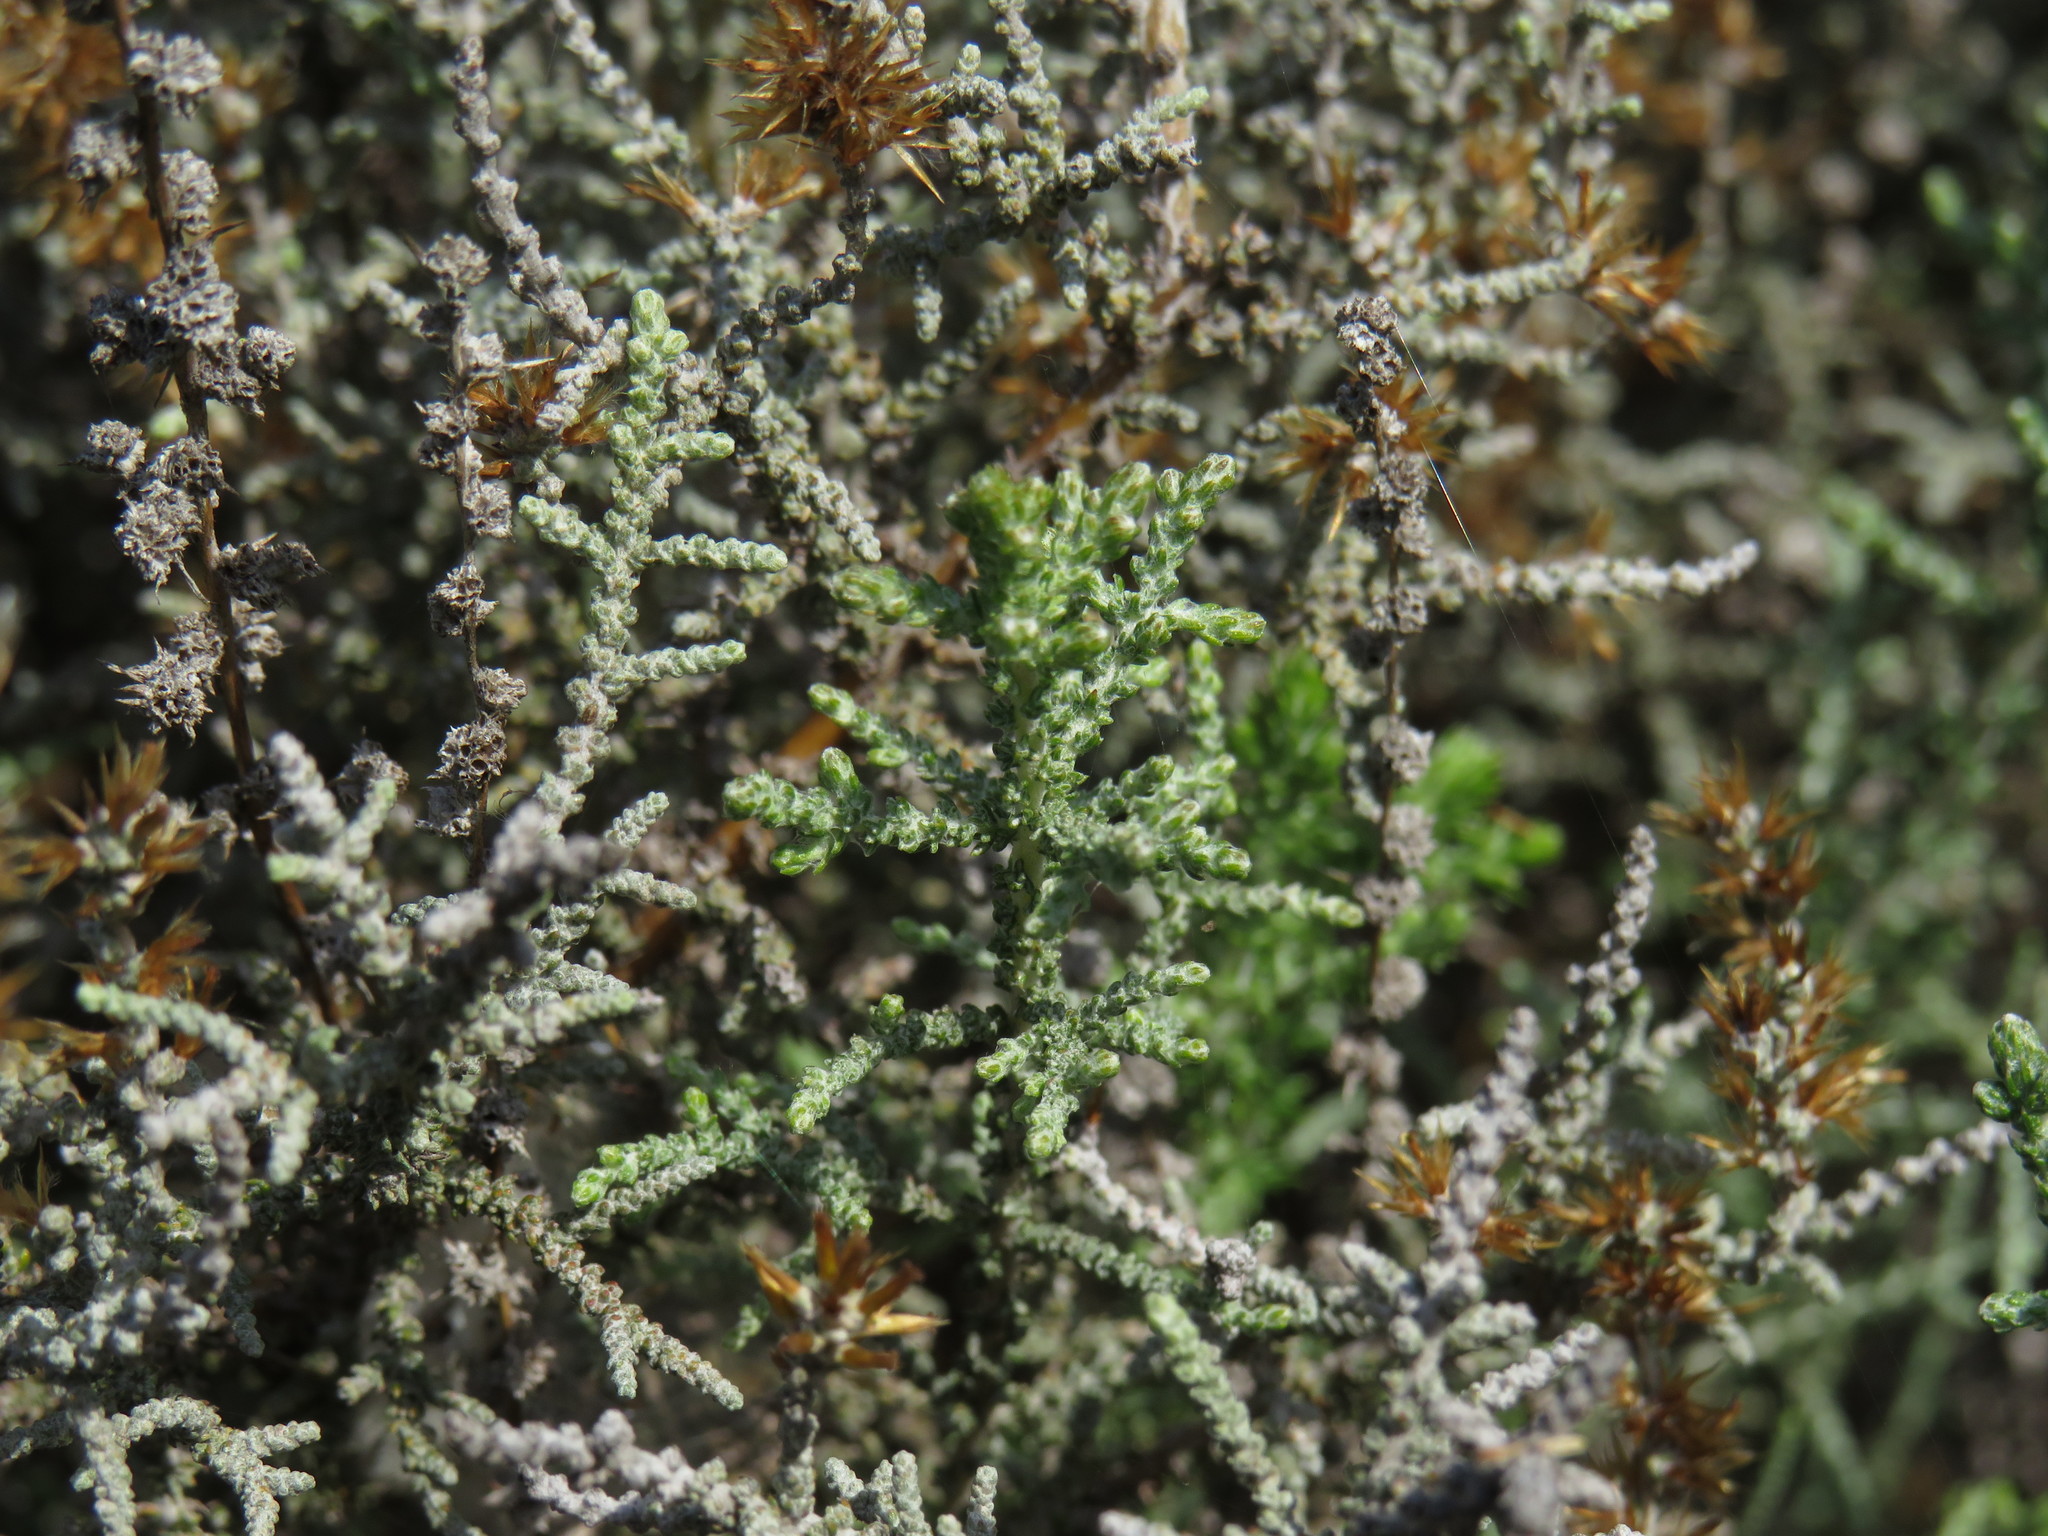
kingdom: Plantae
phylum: Tracheophyta
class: Magnoliopsida
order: Asterales
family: Asteraceae
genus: Seriphium
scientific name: Seriphium plumosum
